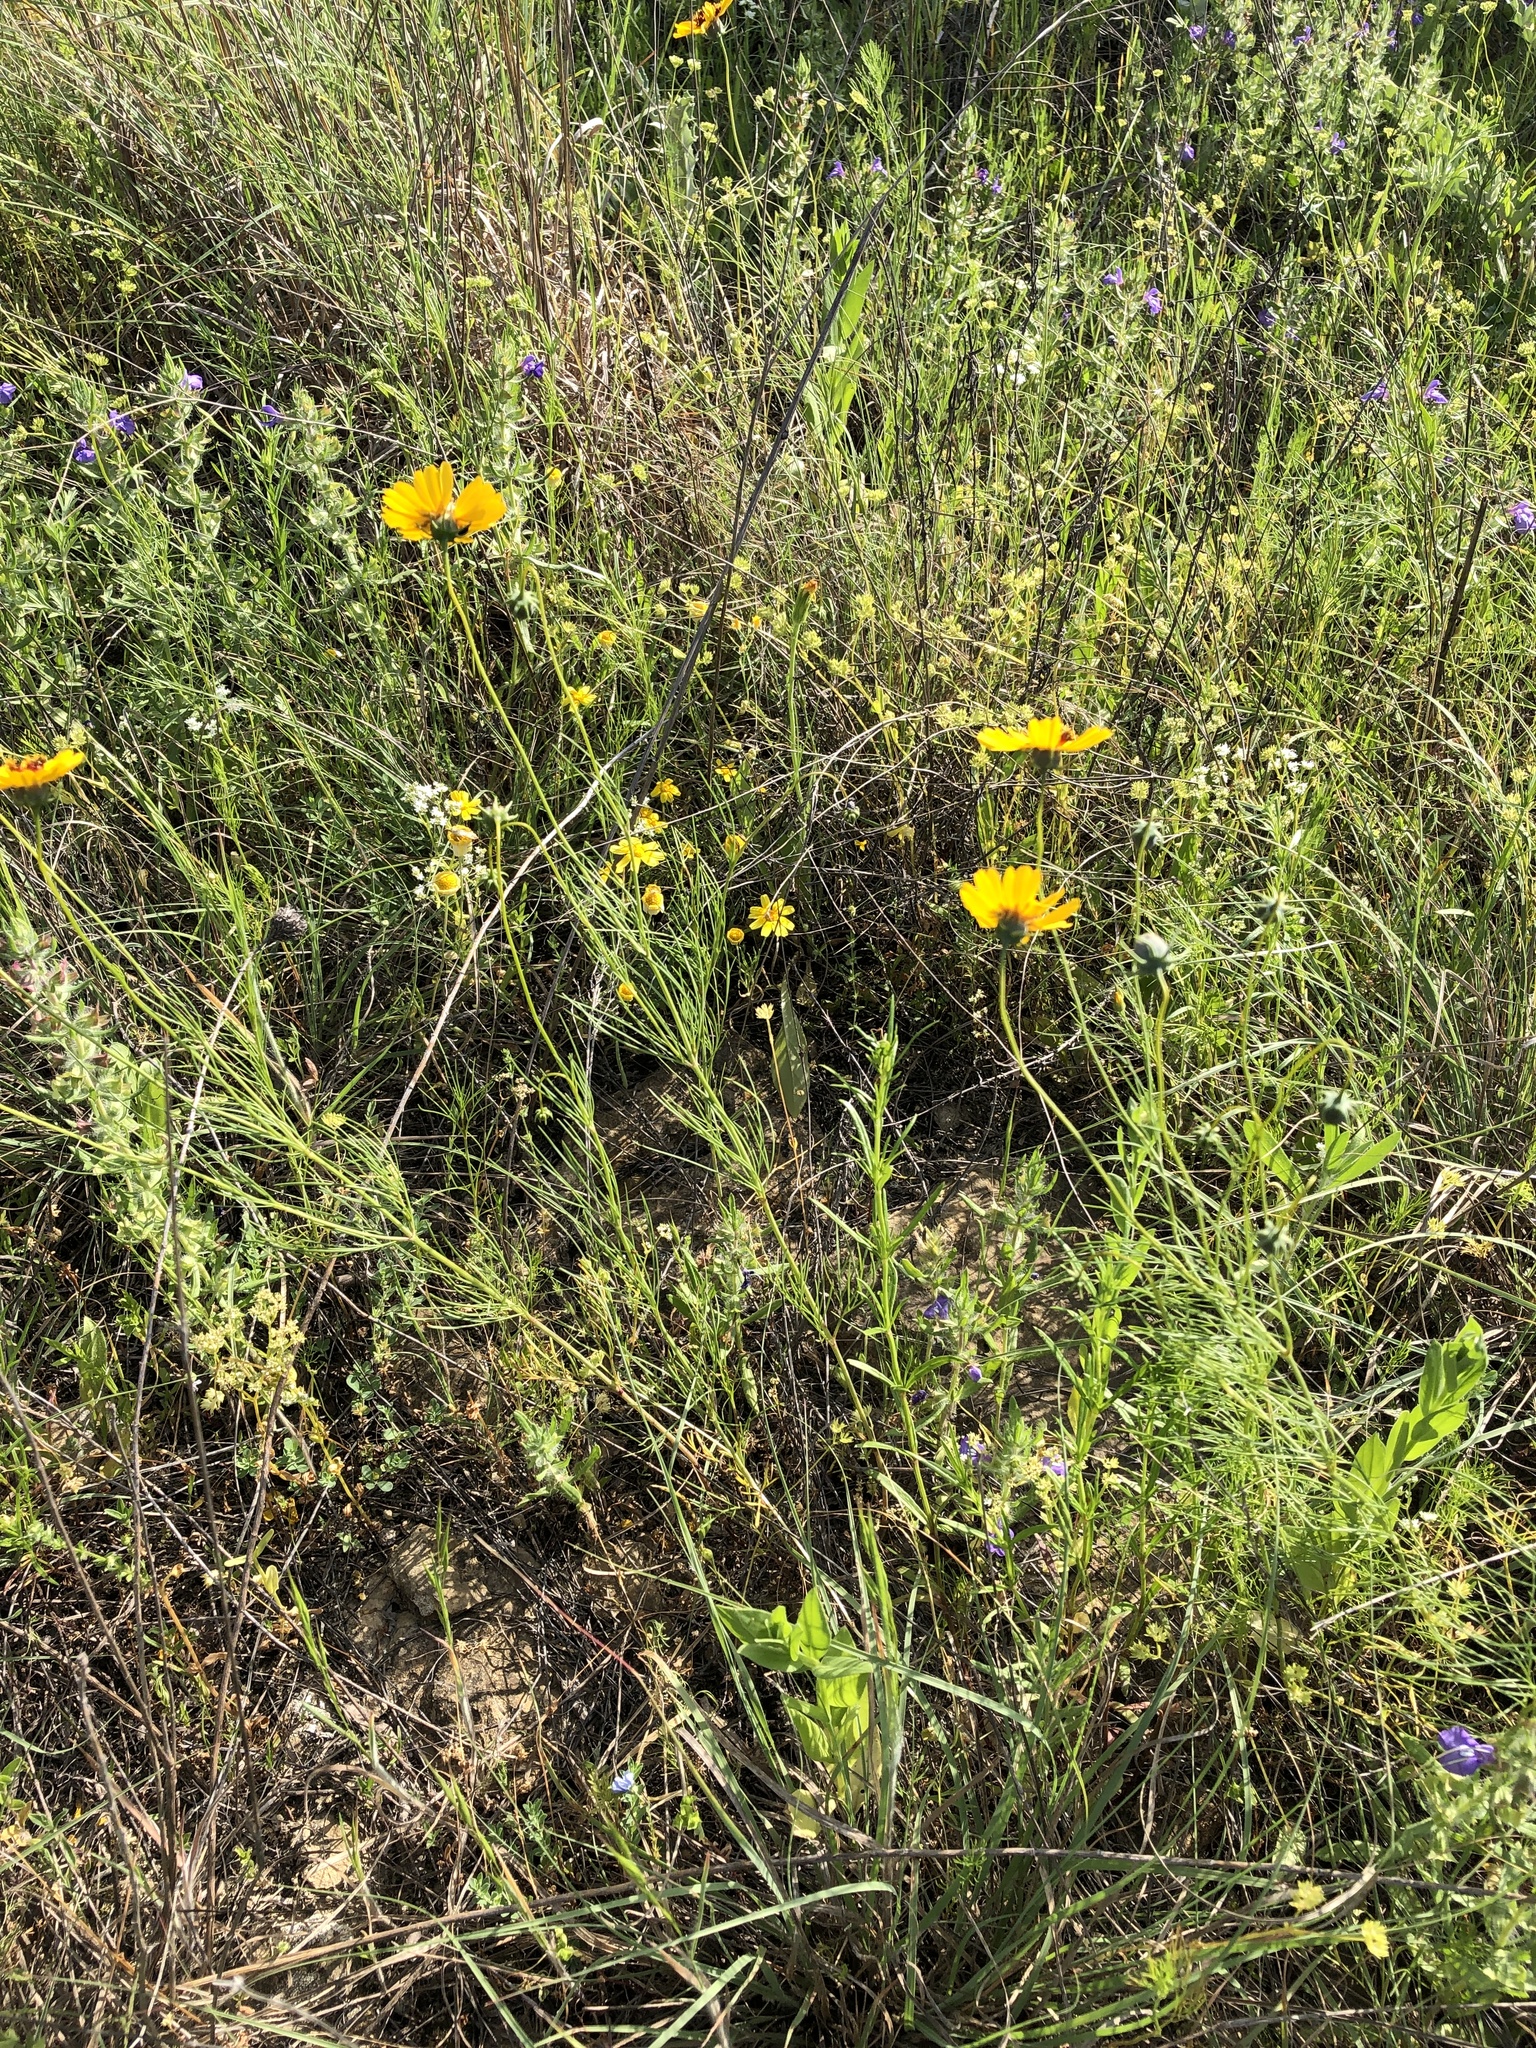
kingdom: Plantae
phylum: Tracheophyta
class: Magnoliopsida
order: Asterales
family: Asteraceae
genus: Thelesperma
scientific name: Thelesperma filifolium
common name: Stiff greenthread
